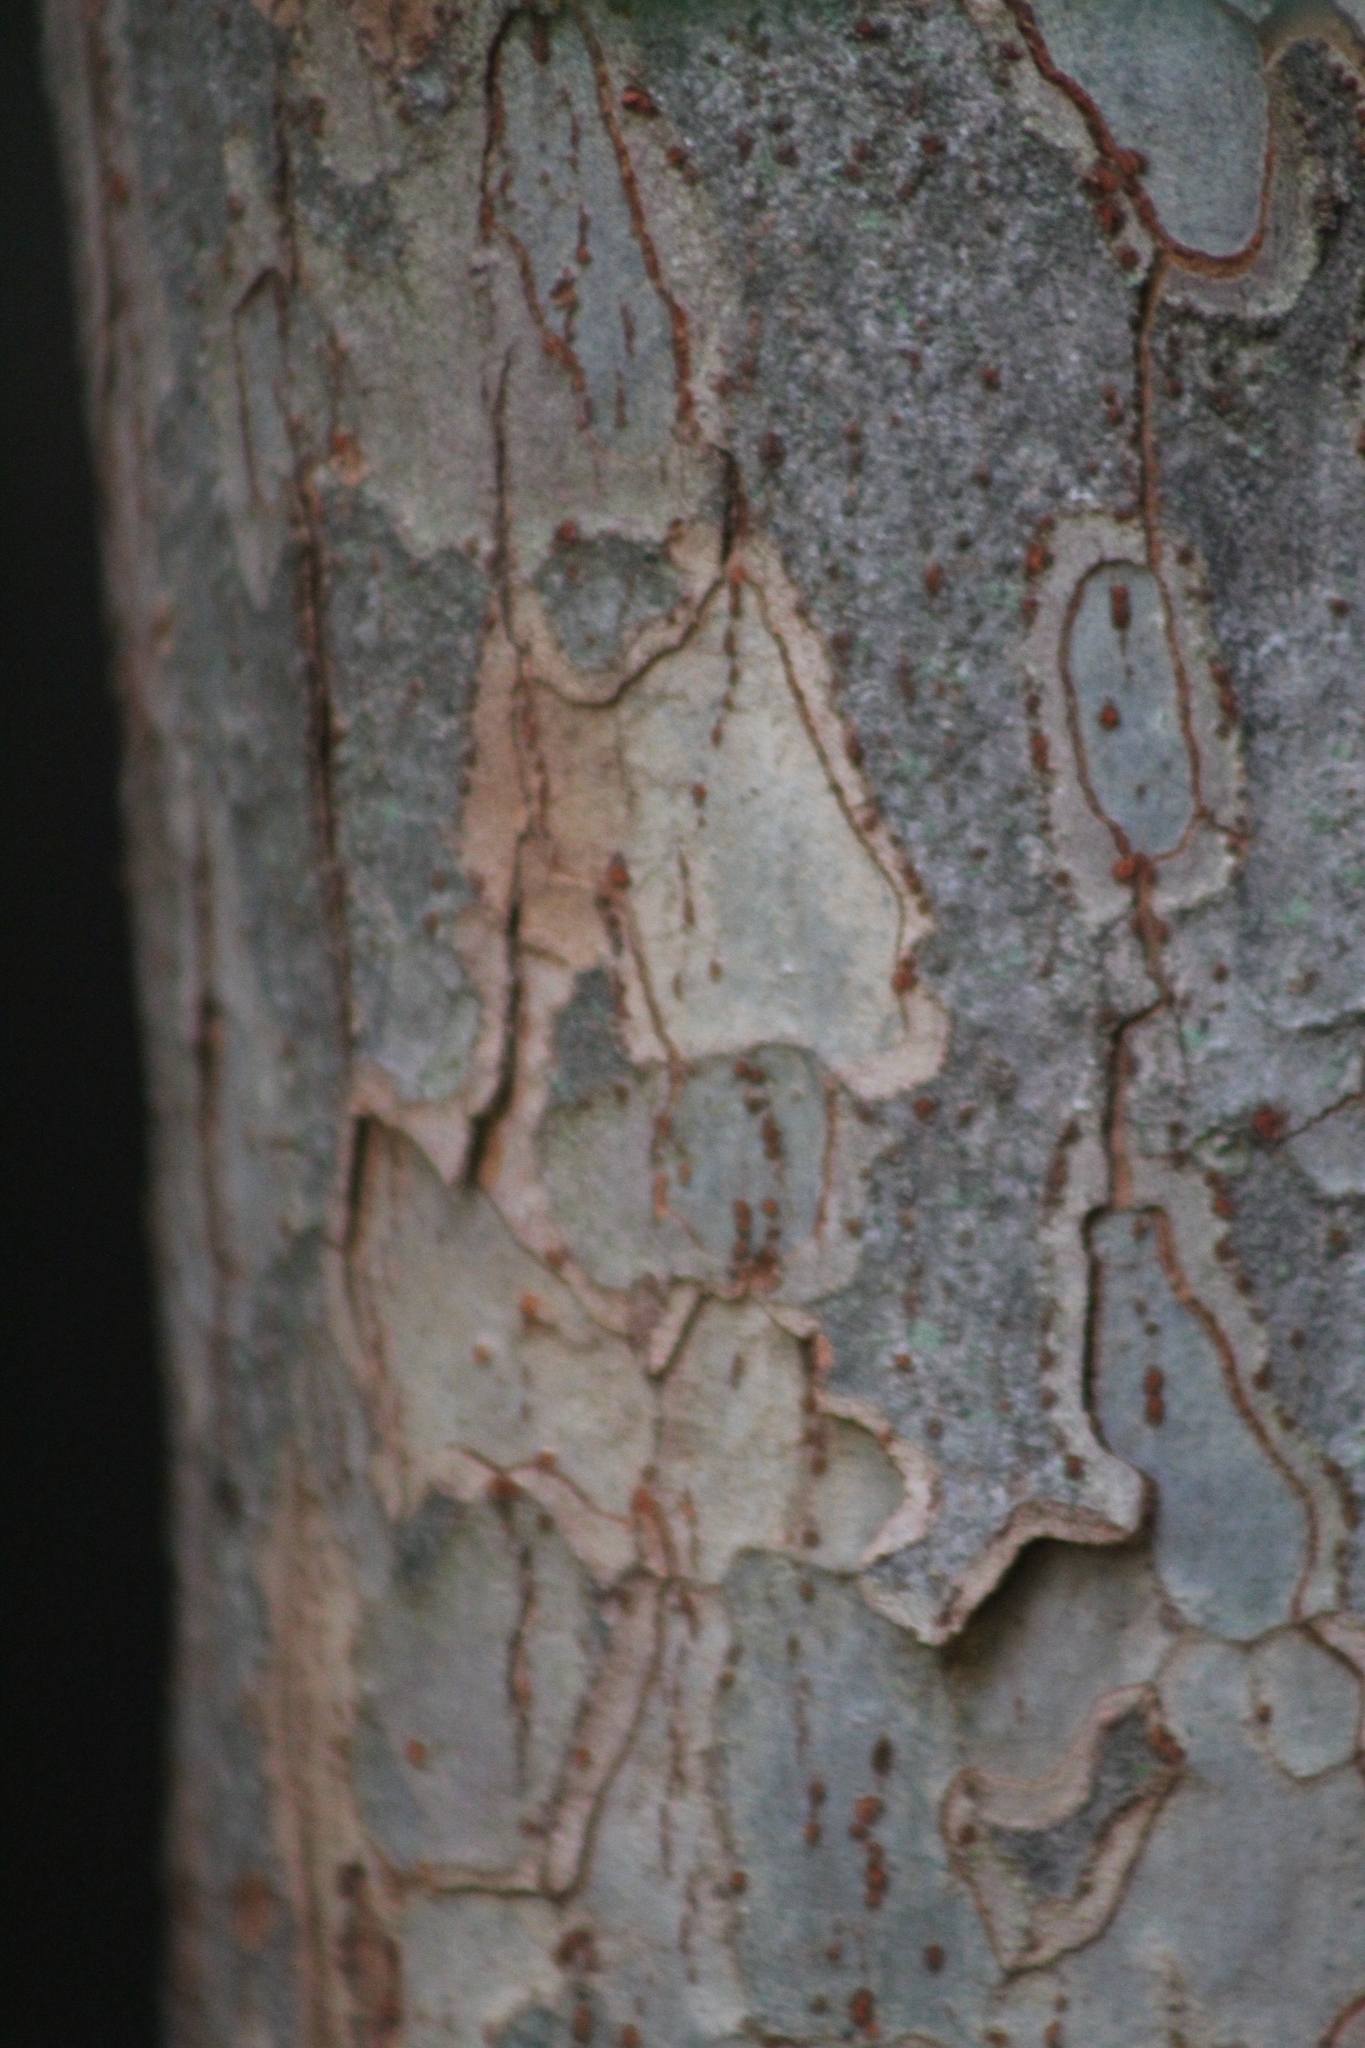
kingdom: Plantae
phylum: Tracheophyta
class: Magnoliopsida
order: Rosales
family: Ulmaceae
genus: Ulmus
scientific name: Ulmus parvifolia
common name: Chinese elm
